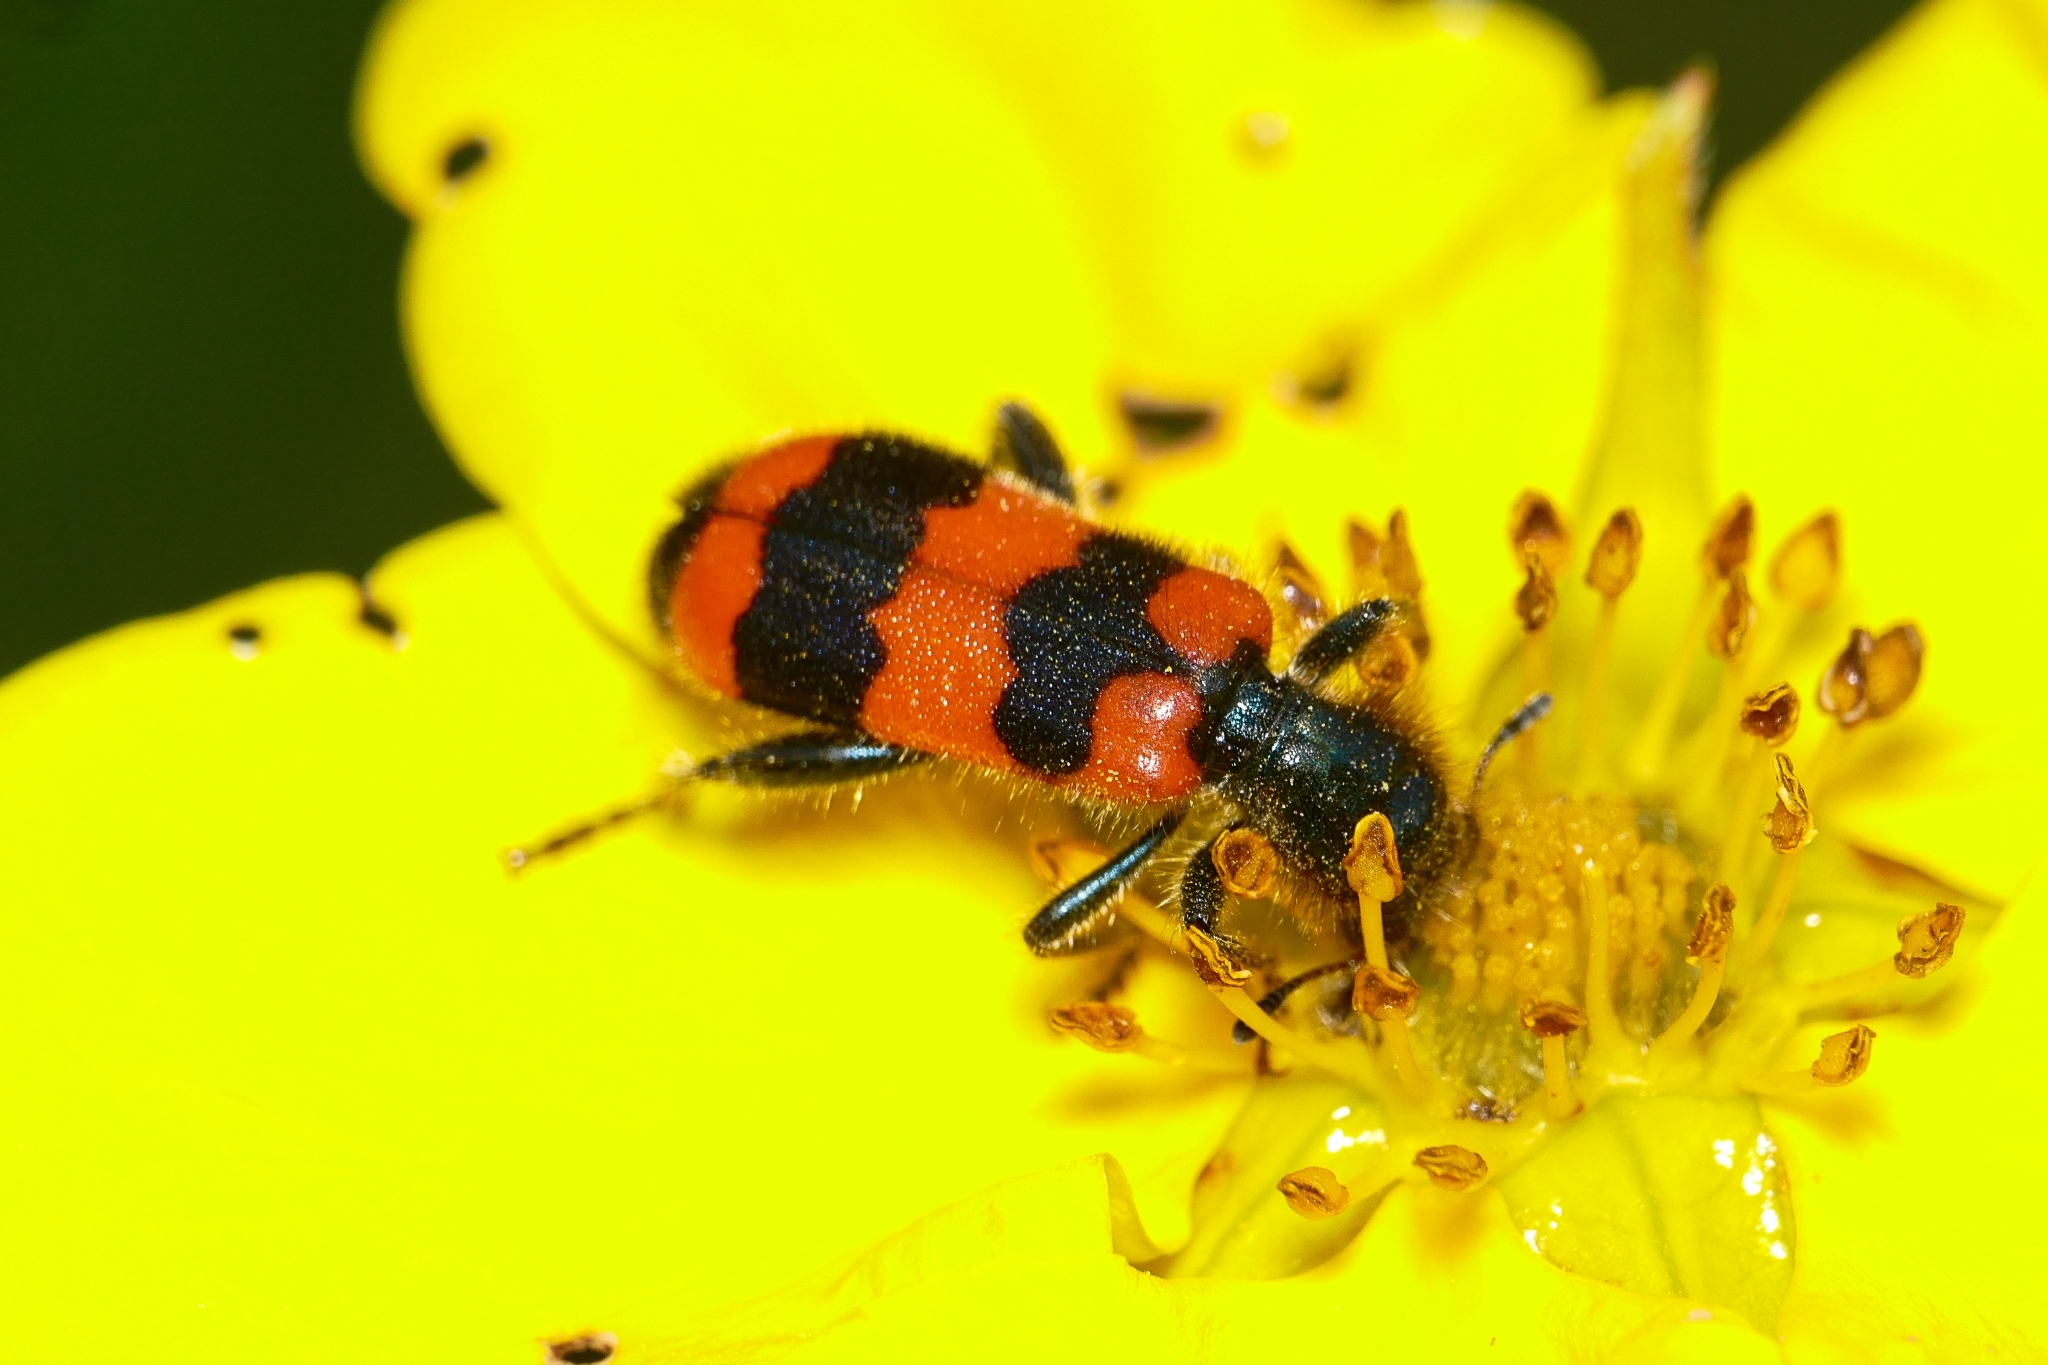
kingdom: Animalia
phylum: Arthropoda
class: Insecta
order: Coleoptera
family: Cleridae
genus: Trichodes
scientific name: Trichodes apiarius
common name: Bee-eating beetle
